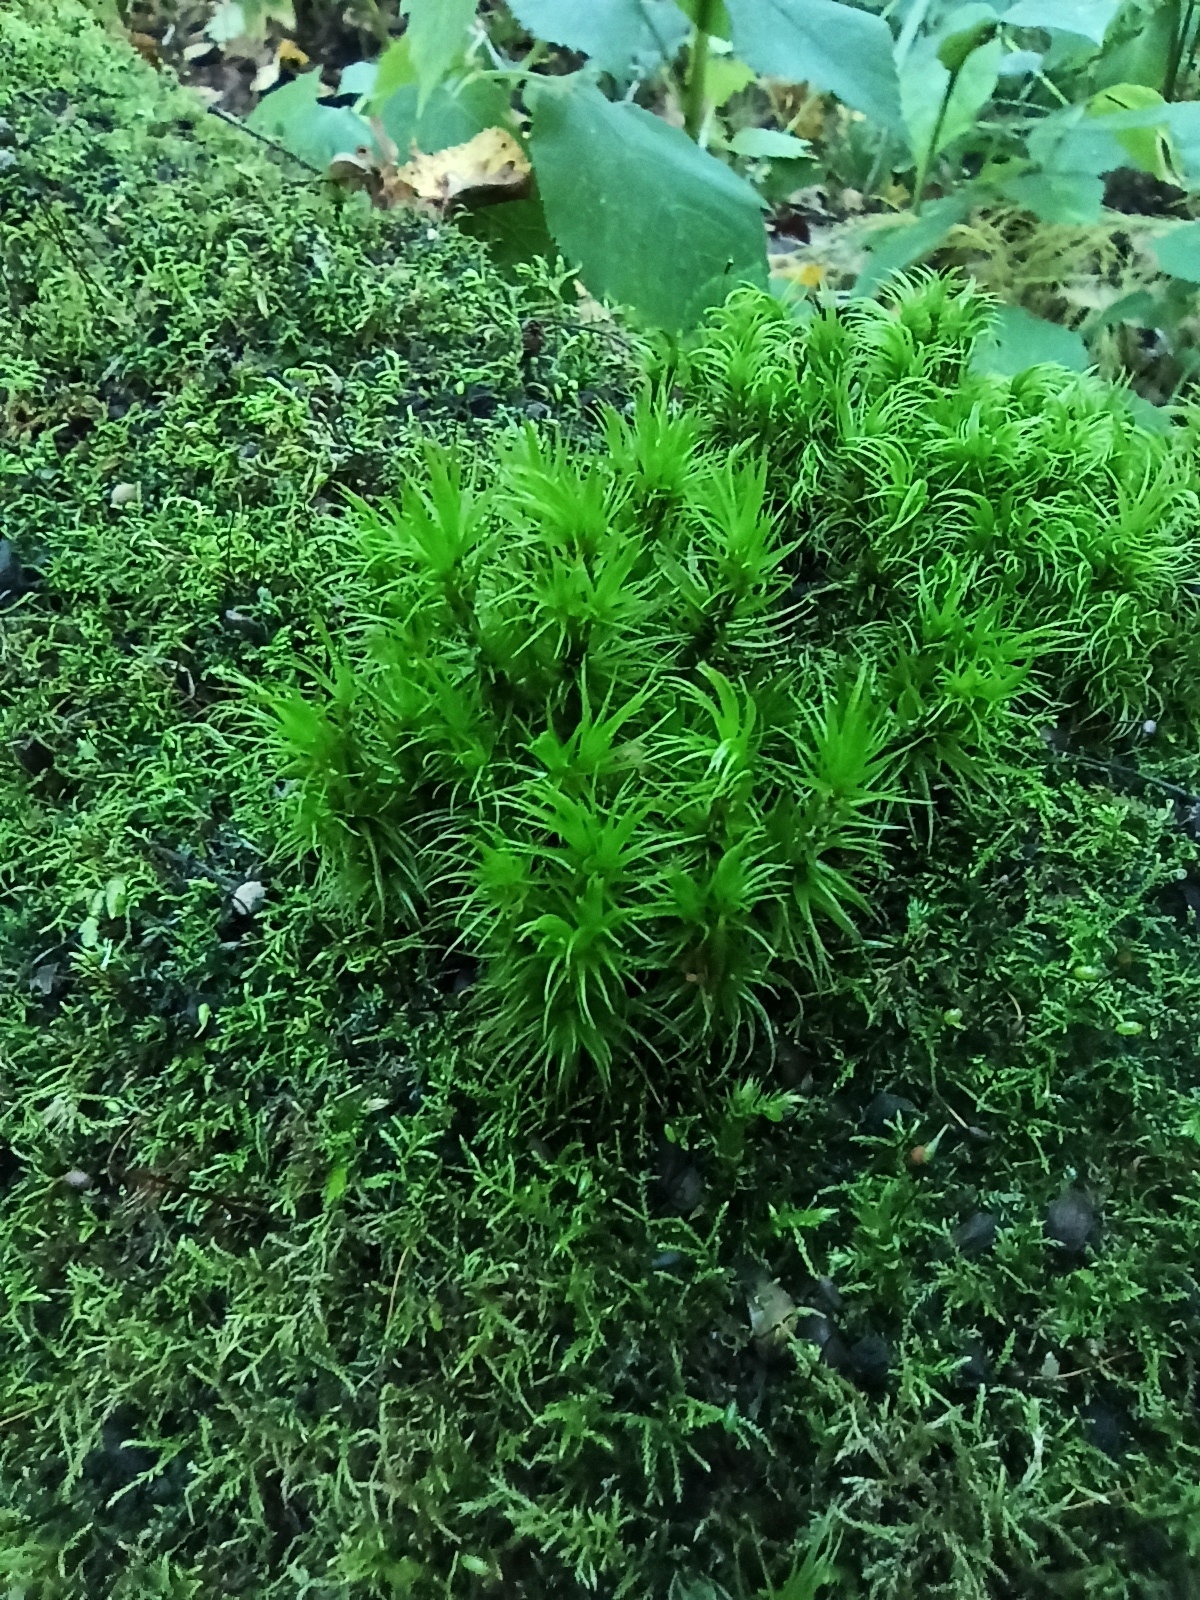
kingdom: Plantae
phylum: Bryophyta
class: Bryopsida
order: Dicranales
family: Dicranaceae
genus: Dicranum
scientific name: Dicranum scoparium
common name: Broom fork-moss
